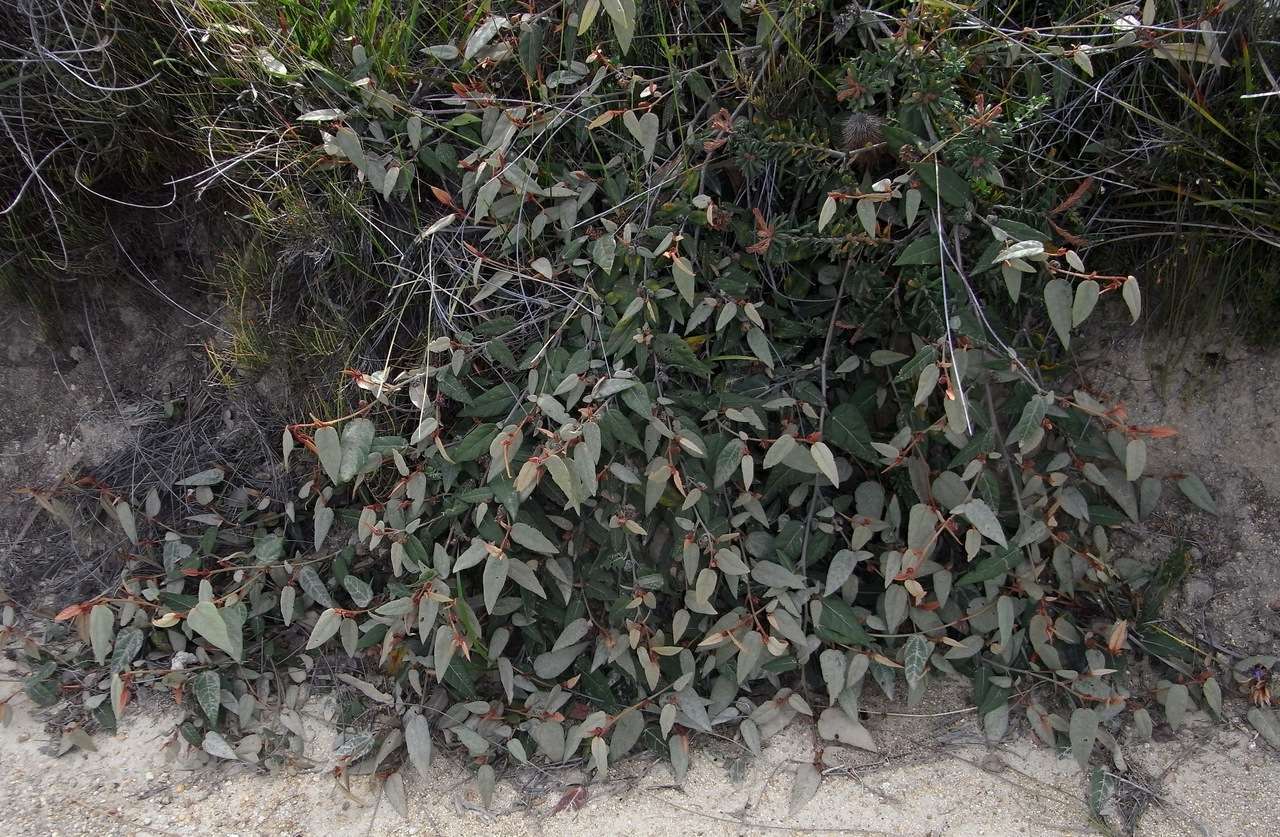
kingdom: Plantae
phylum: Tracheophyta
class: Magnoliopsida
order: Malvales
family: Malvaceae
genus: Lasiopetalum
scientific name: Lasiopetalum macrophyllum
